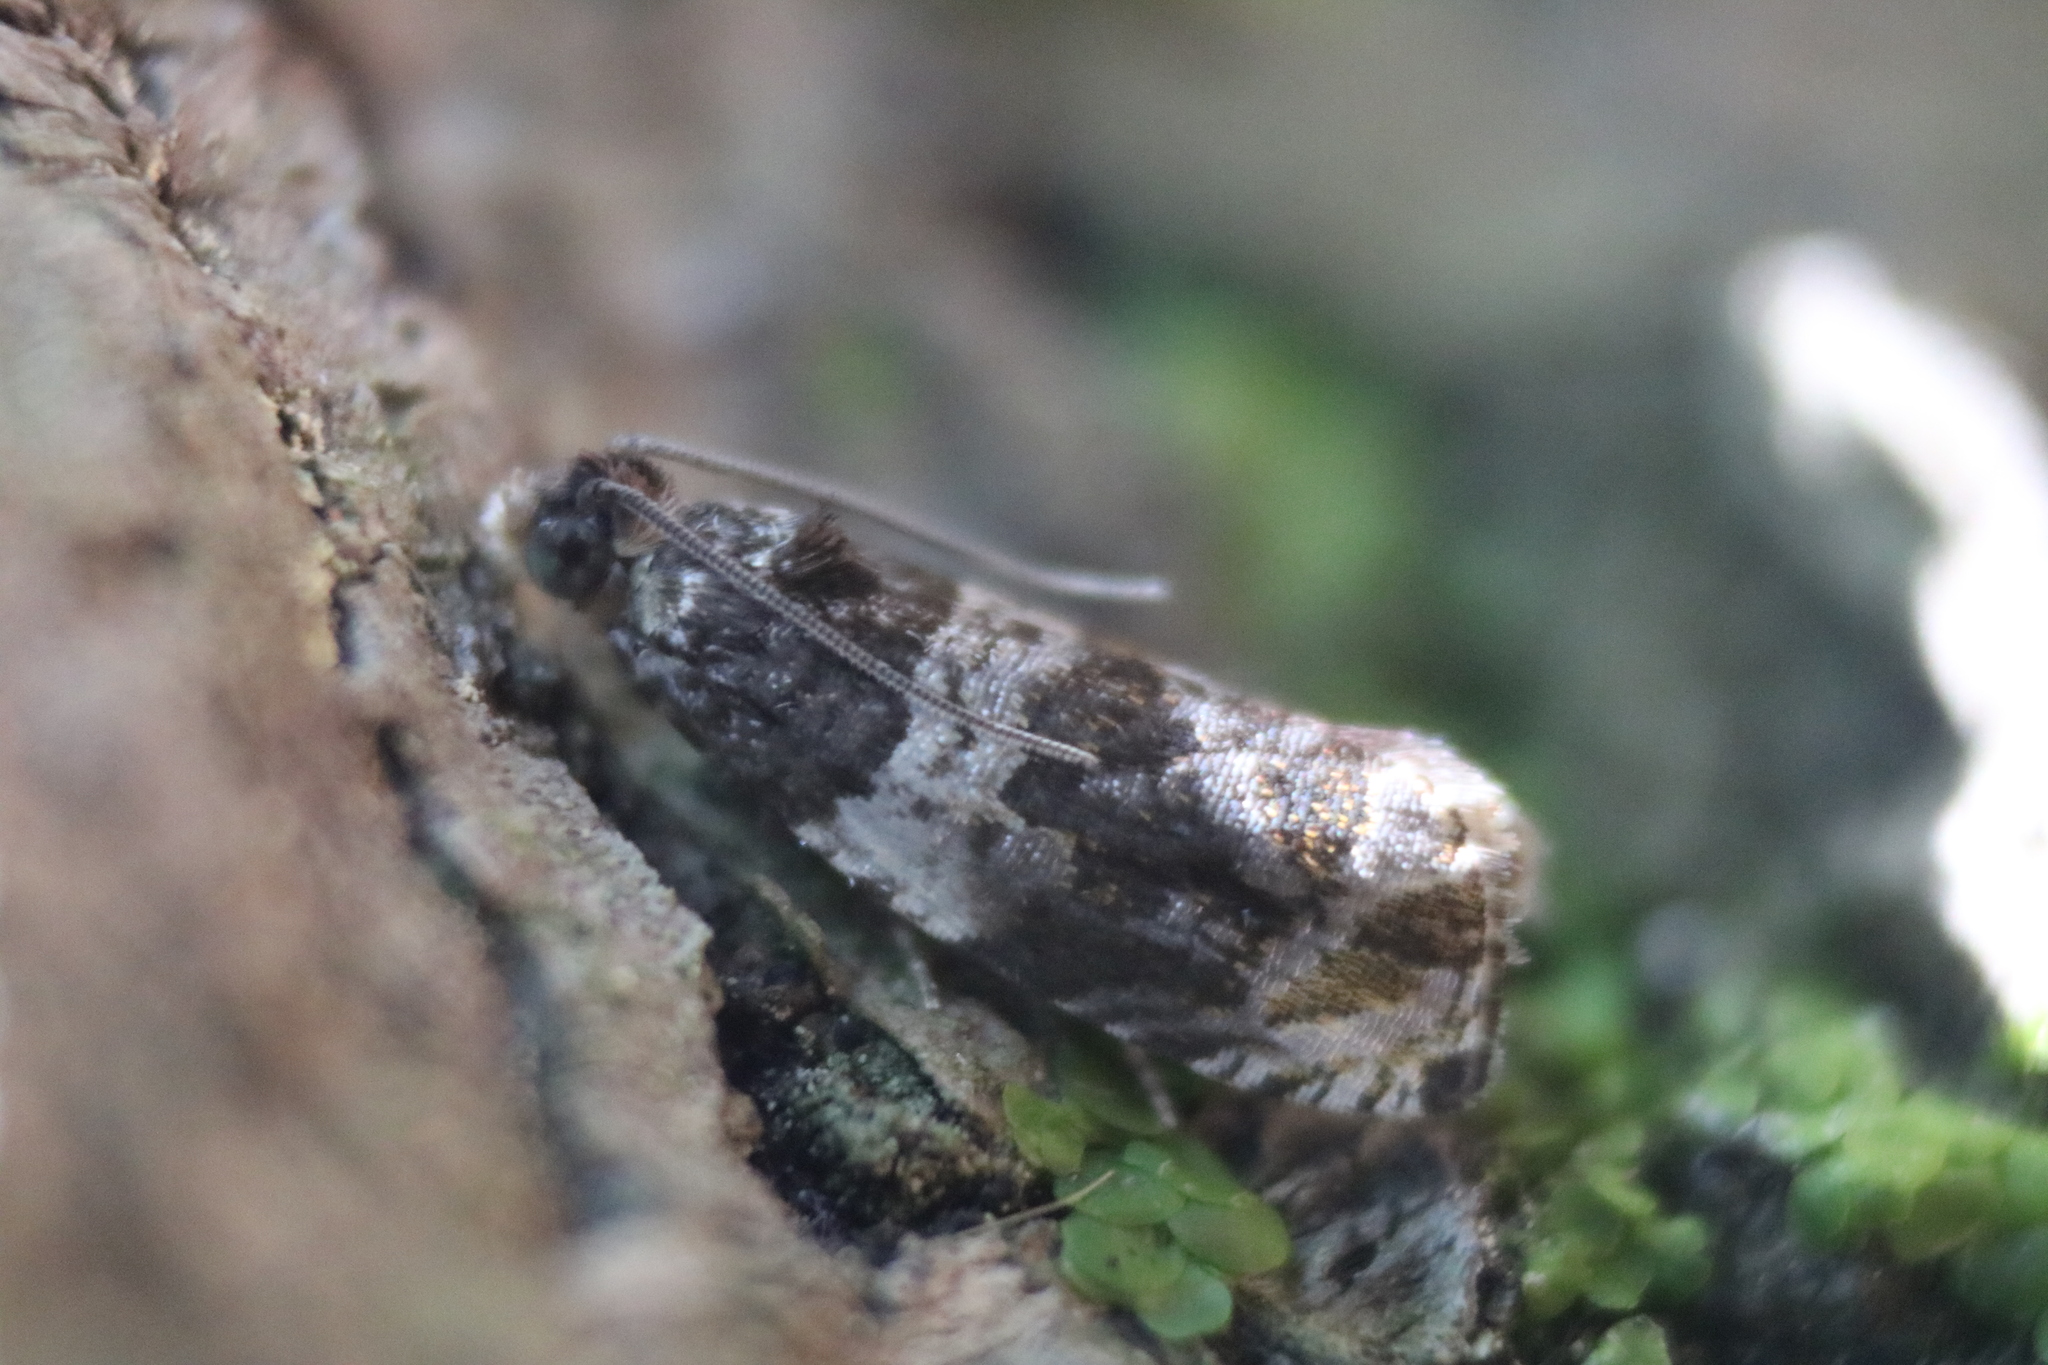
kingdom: Animalia
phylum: Arthropoda
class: Insecta
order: Lepidoptera
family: Tortricidae
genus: Olethreutes
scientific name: Olethreutes fasciatana
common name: Banded olethreutes moth
